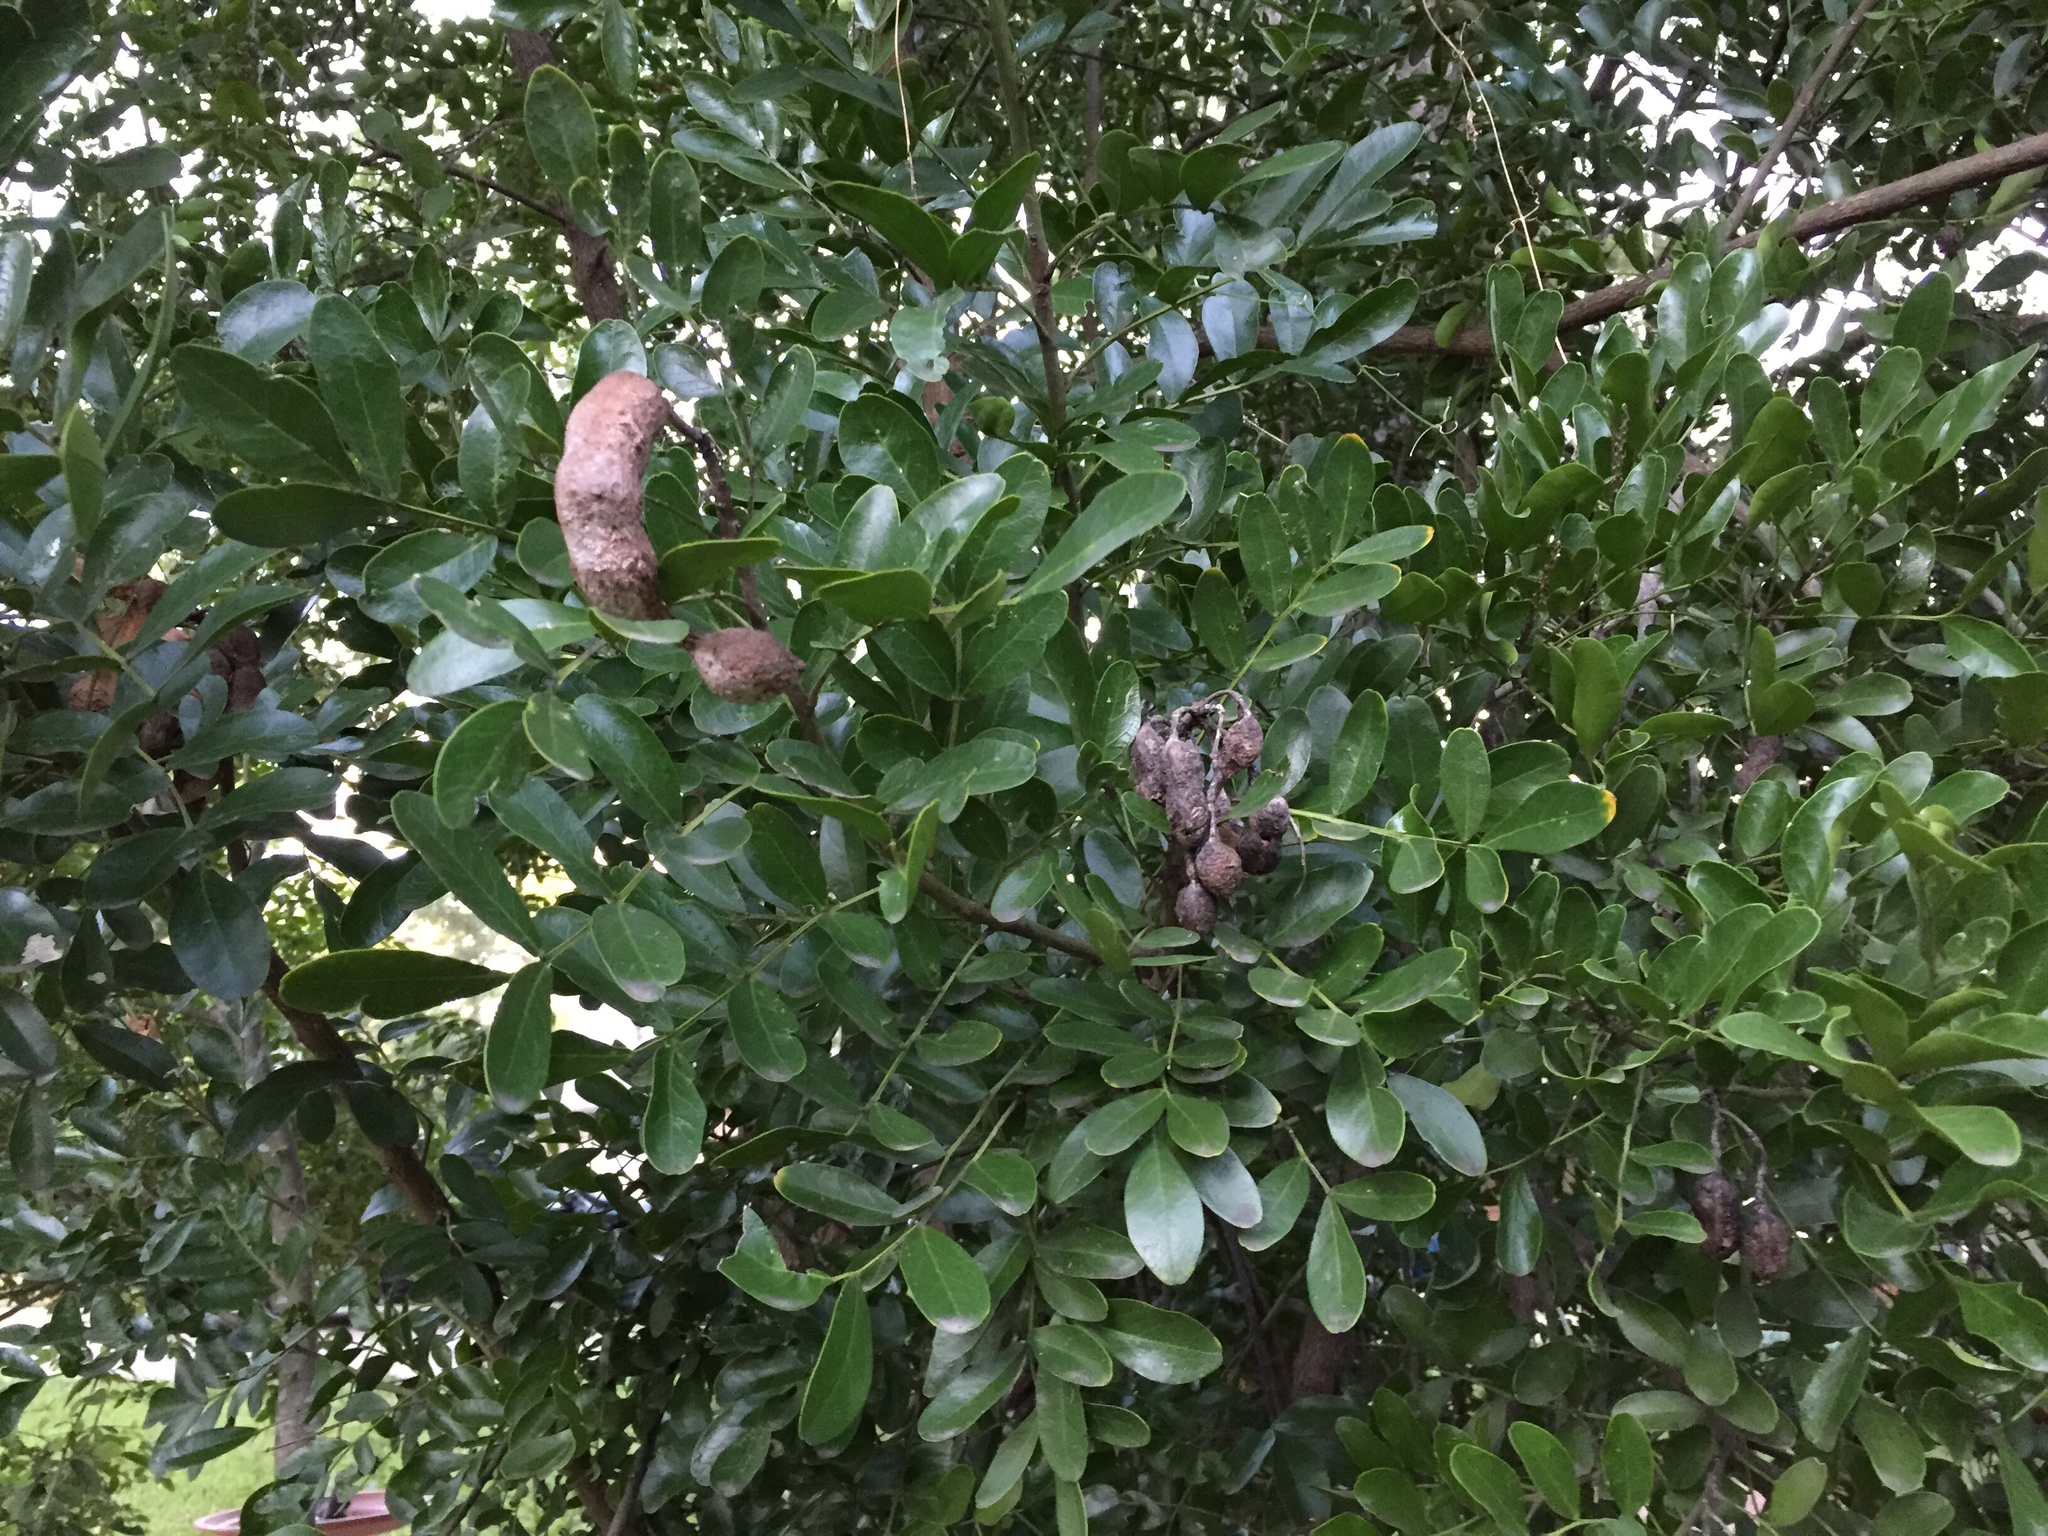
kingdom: Plantae
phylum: Tracheophyta
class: Magnoliopsida
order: Fabales
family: Fabaceae
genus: Dermatophyllum
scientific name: Dermatophyllum secundiflorum
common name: Texas-mountain-laurel
